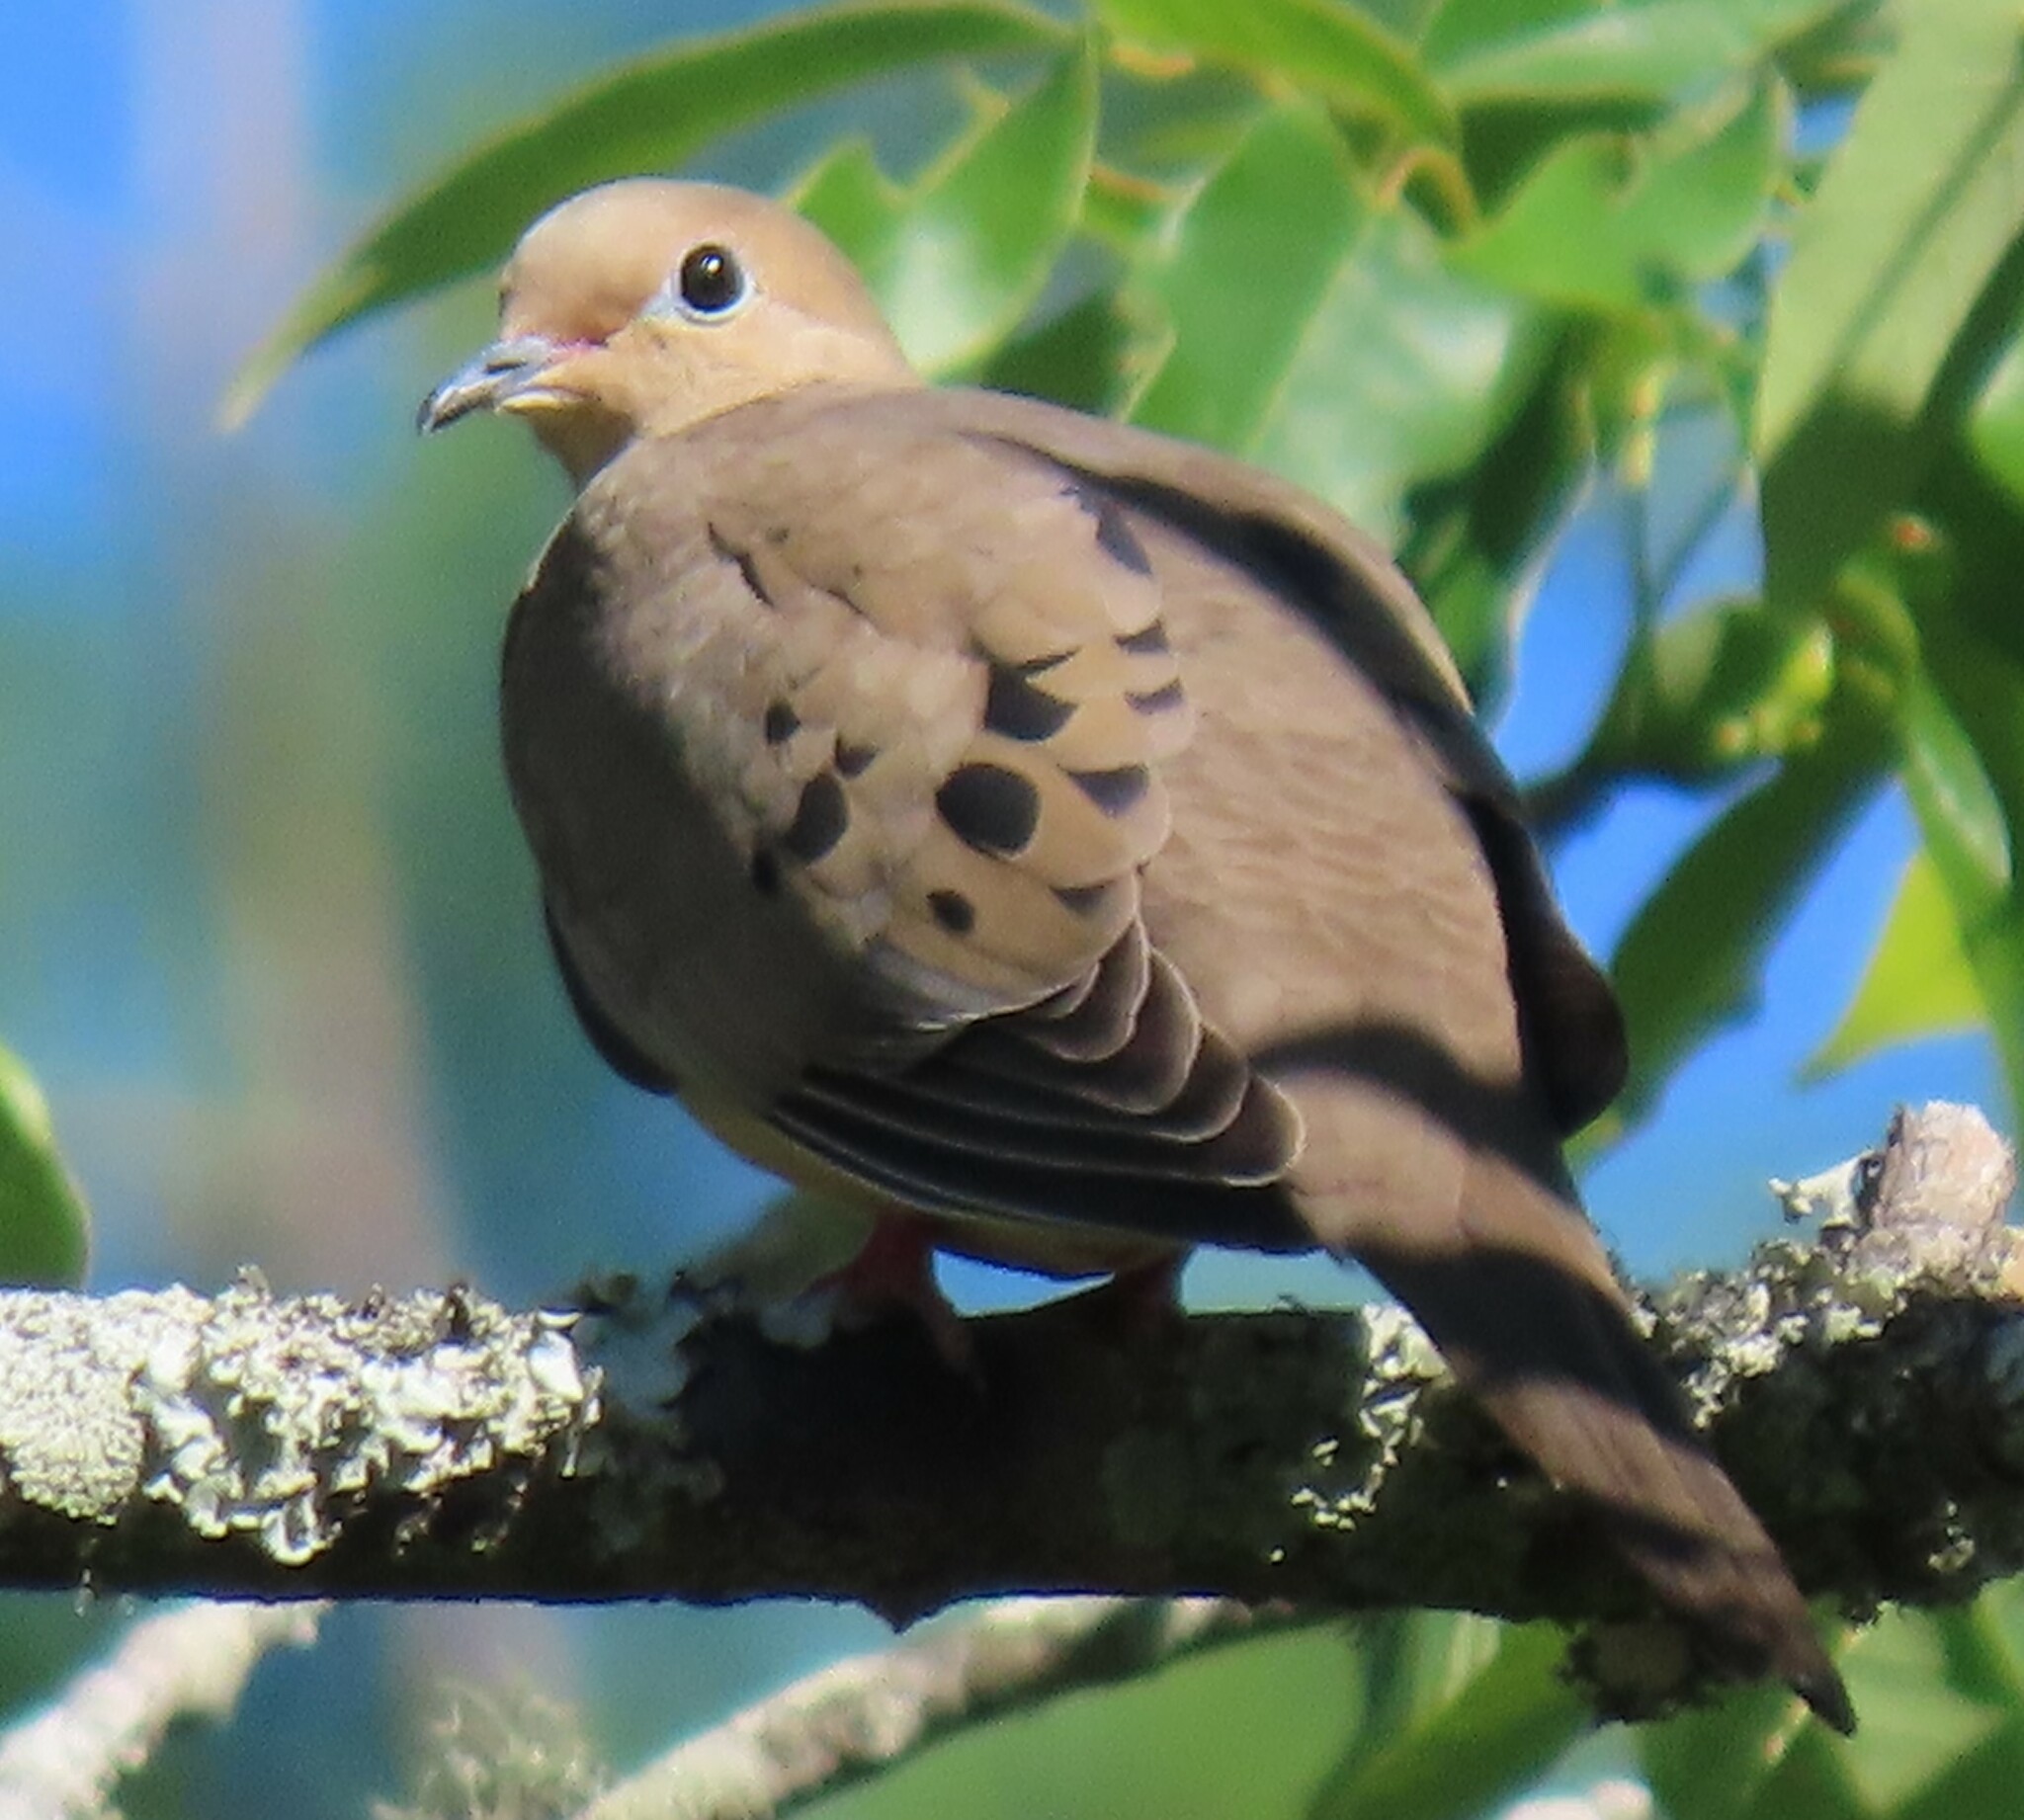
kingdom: Animalia
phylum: Chordata
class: Aves
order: Columbiformes
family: Columbidae
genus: Zenaida
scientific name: Zenaida macroura
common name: Mourning dove
